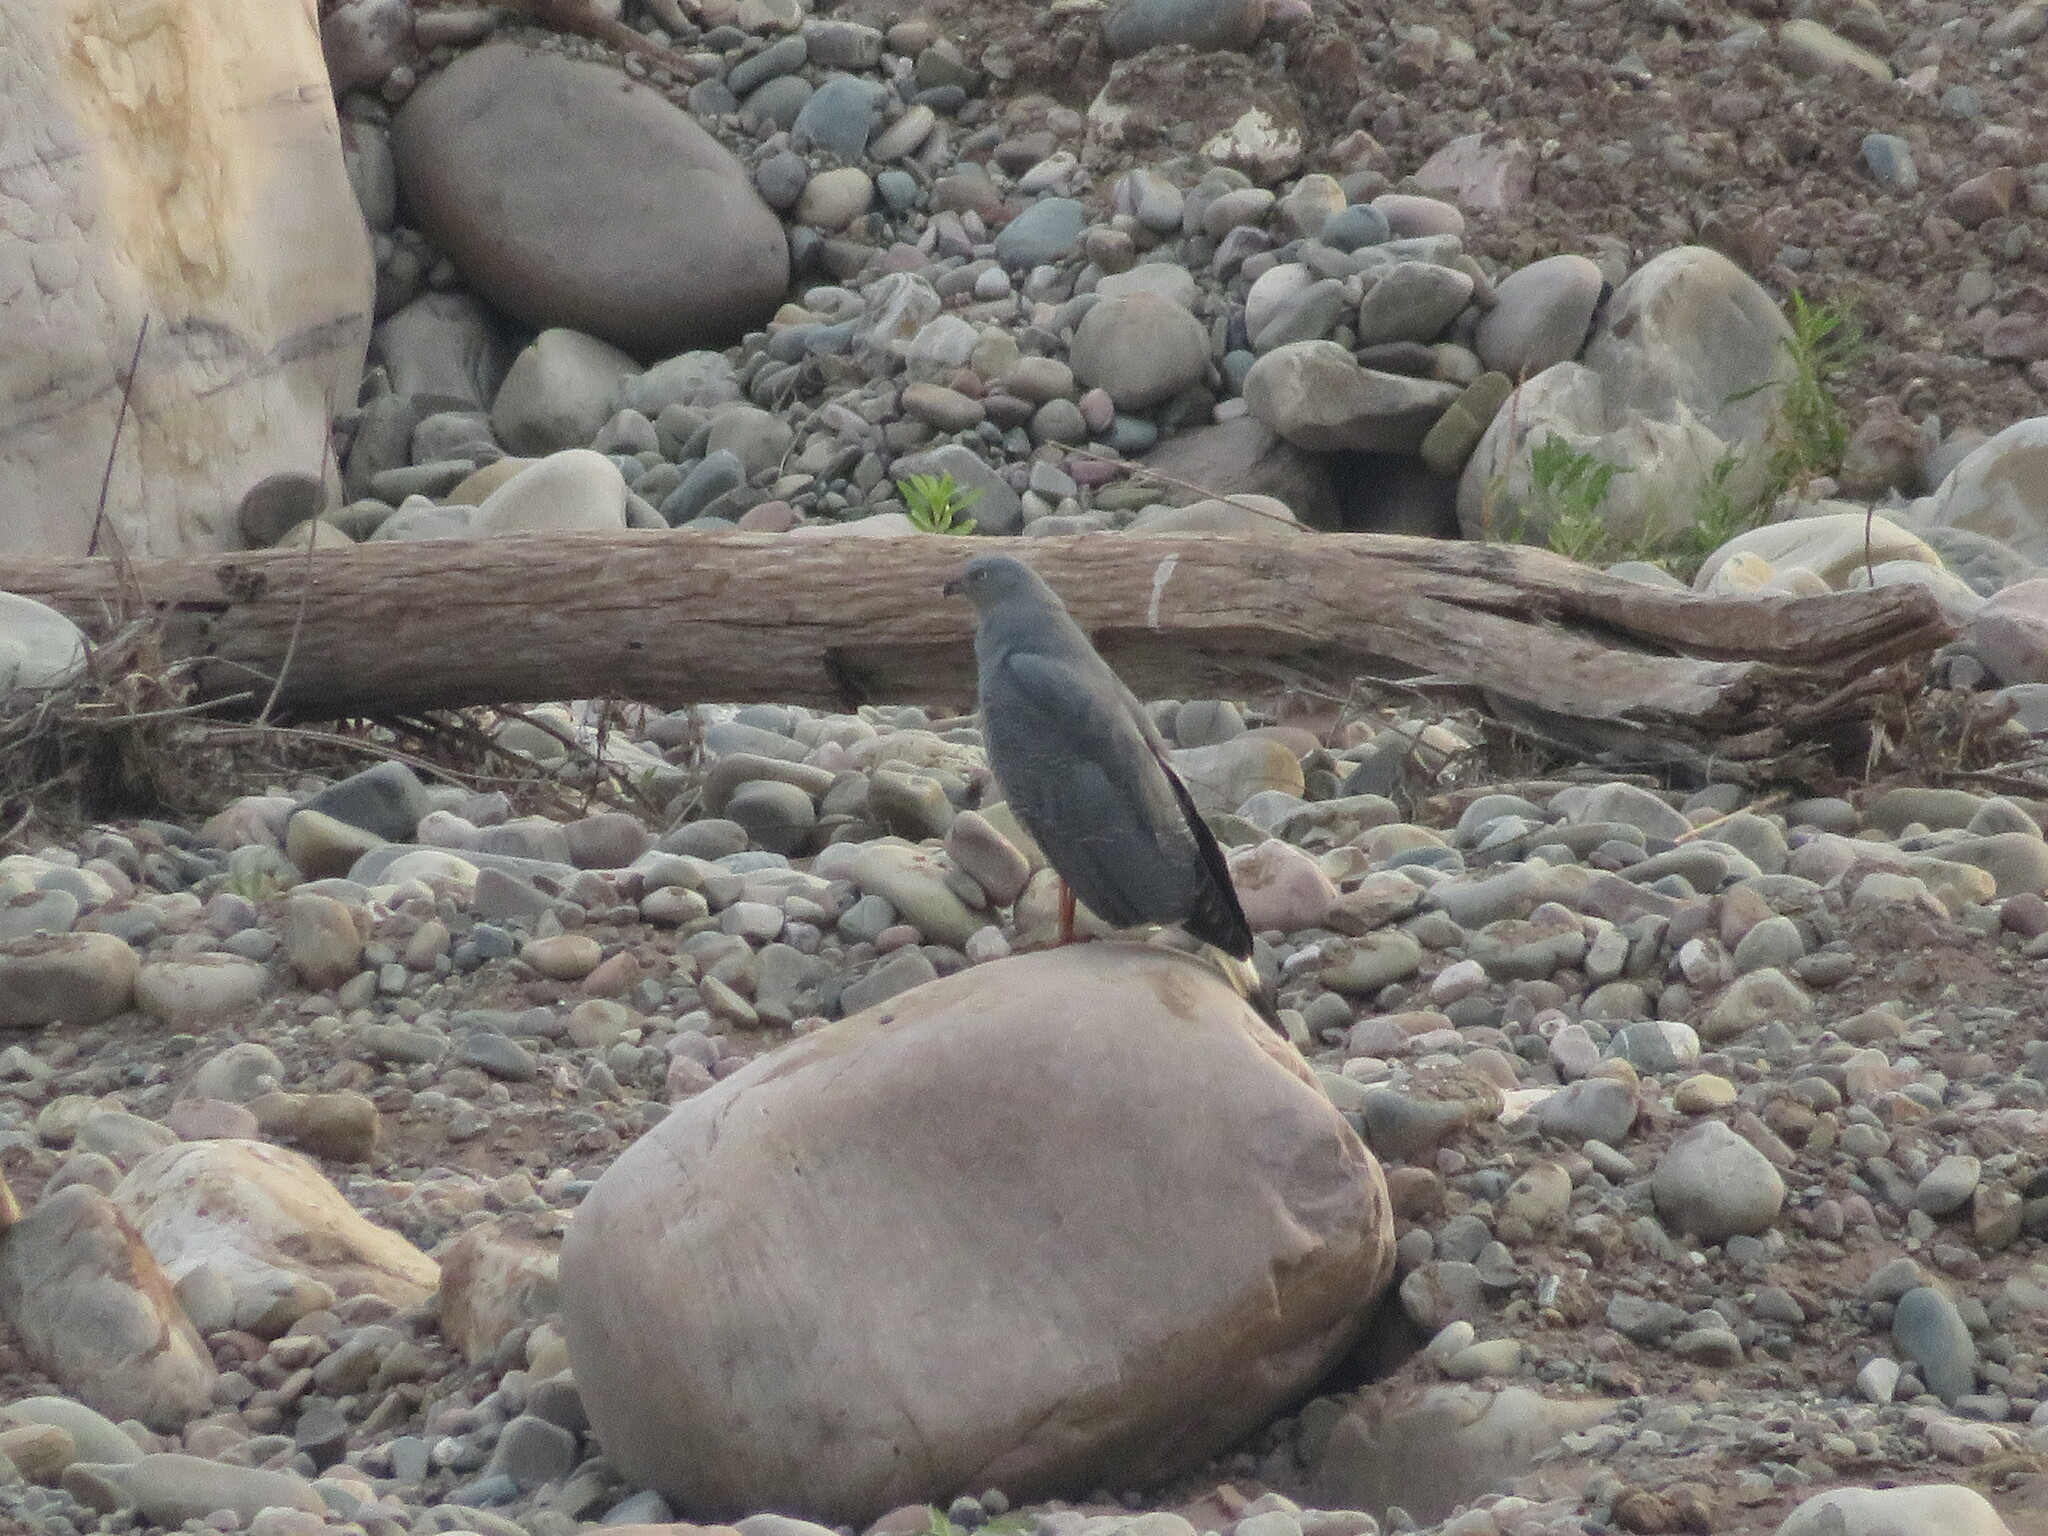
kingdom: Animalia
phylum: Chordata
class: Aves
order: Accipitriformes
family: Accipitridae
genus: Geranospiza
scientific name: Geranospiza caerulescens
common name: Crane hawk
